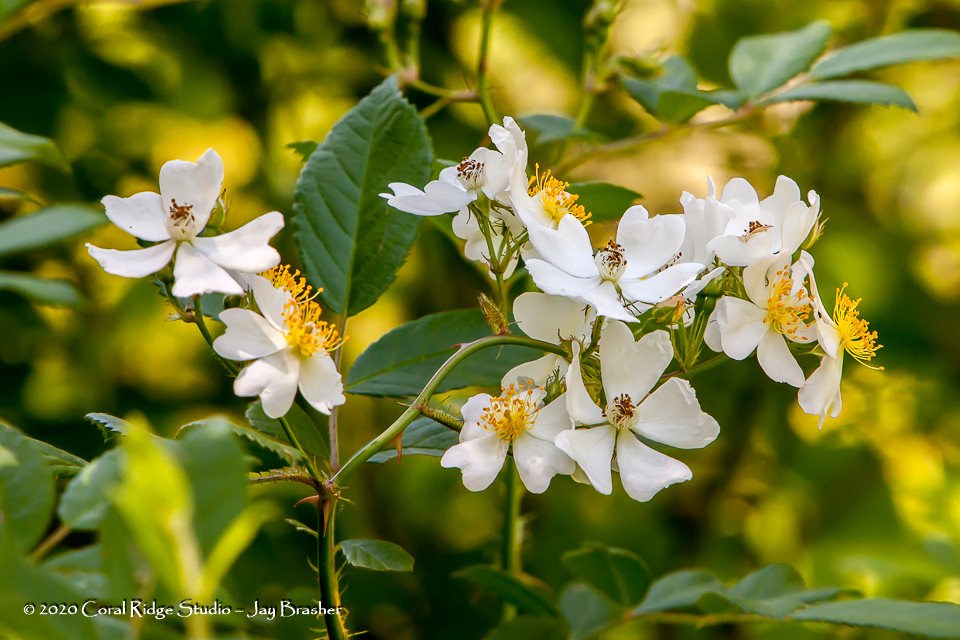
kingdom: Plantae
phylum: Tracheophyta
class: Magnoliopsida
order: Rosales
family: Rosaceae
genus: Rosa
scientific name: Rosa multiflora
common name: Multiflora rose
